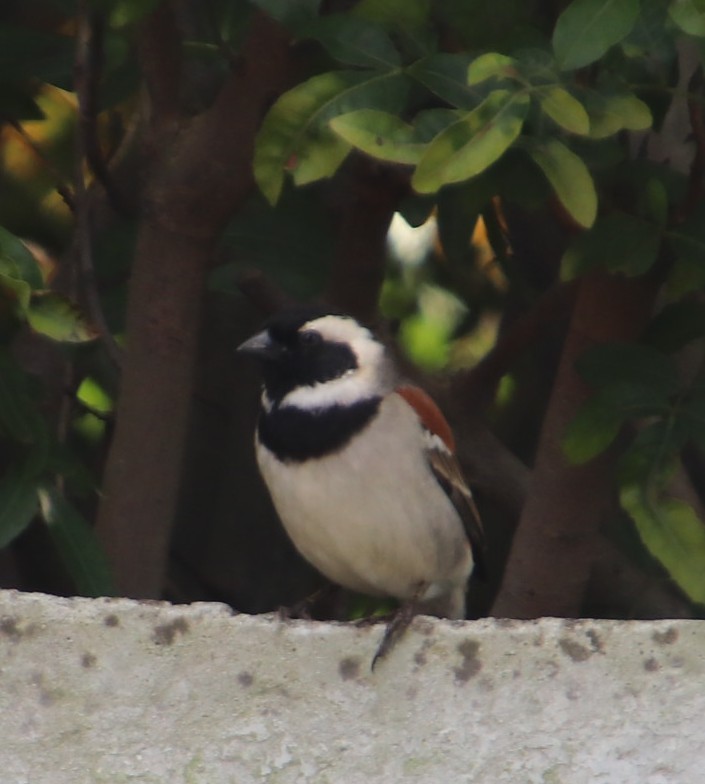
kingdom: Animalia
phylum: Chordata
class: Aves
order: Passeriformes
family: Passeridae
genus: Passer
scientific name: Passer melanurus
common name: Cape sparrow
